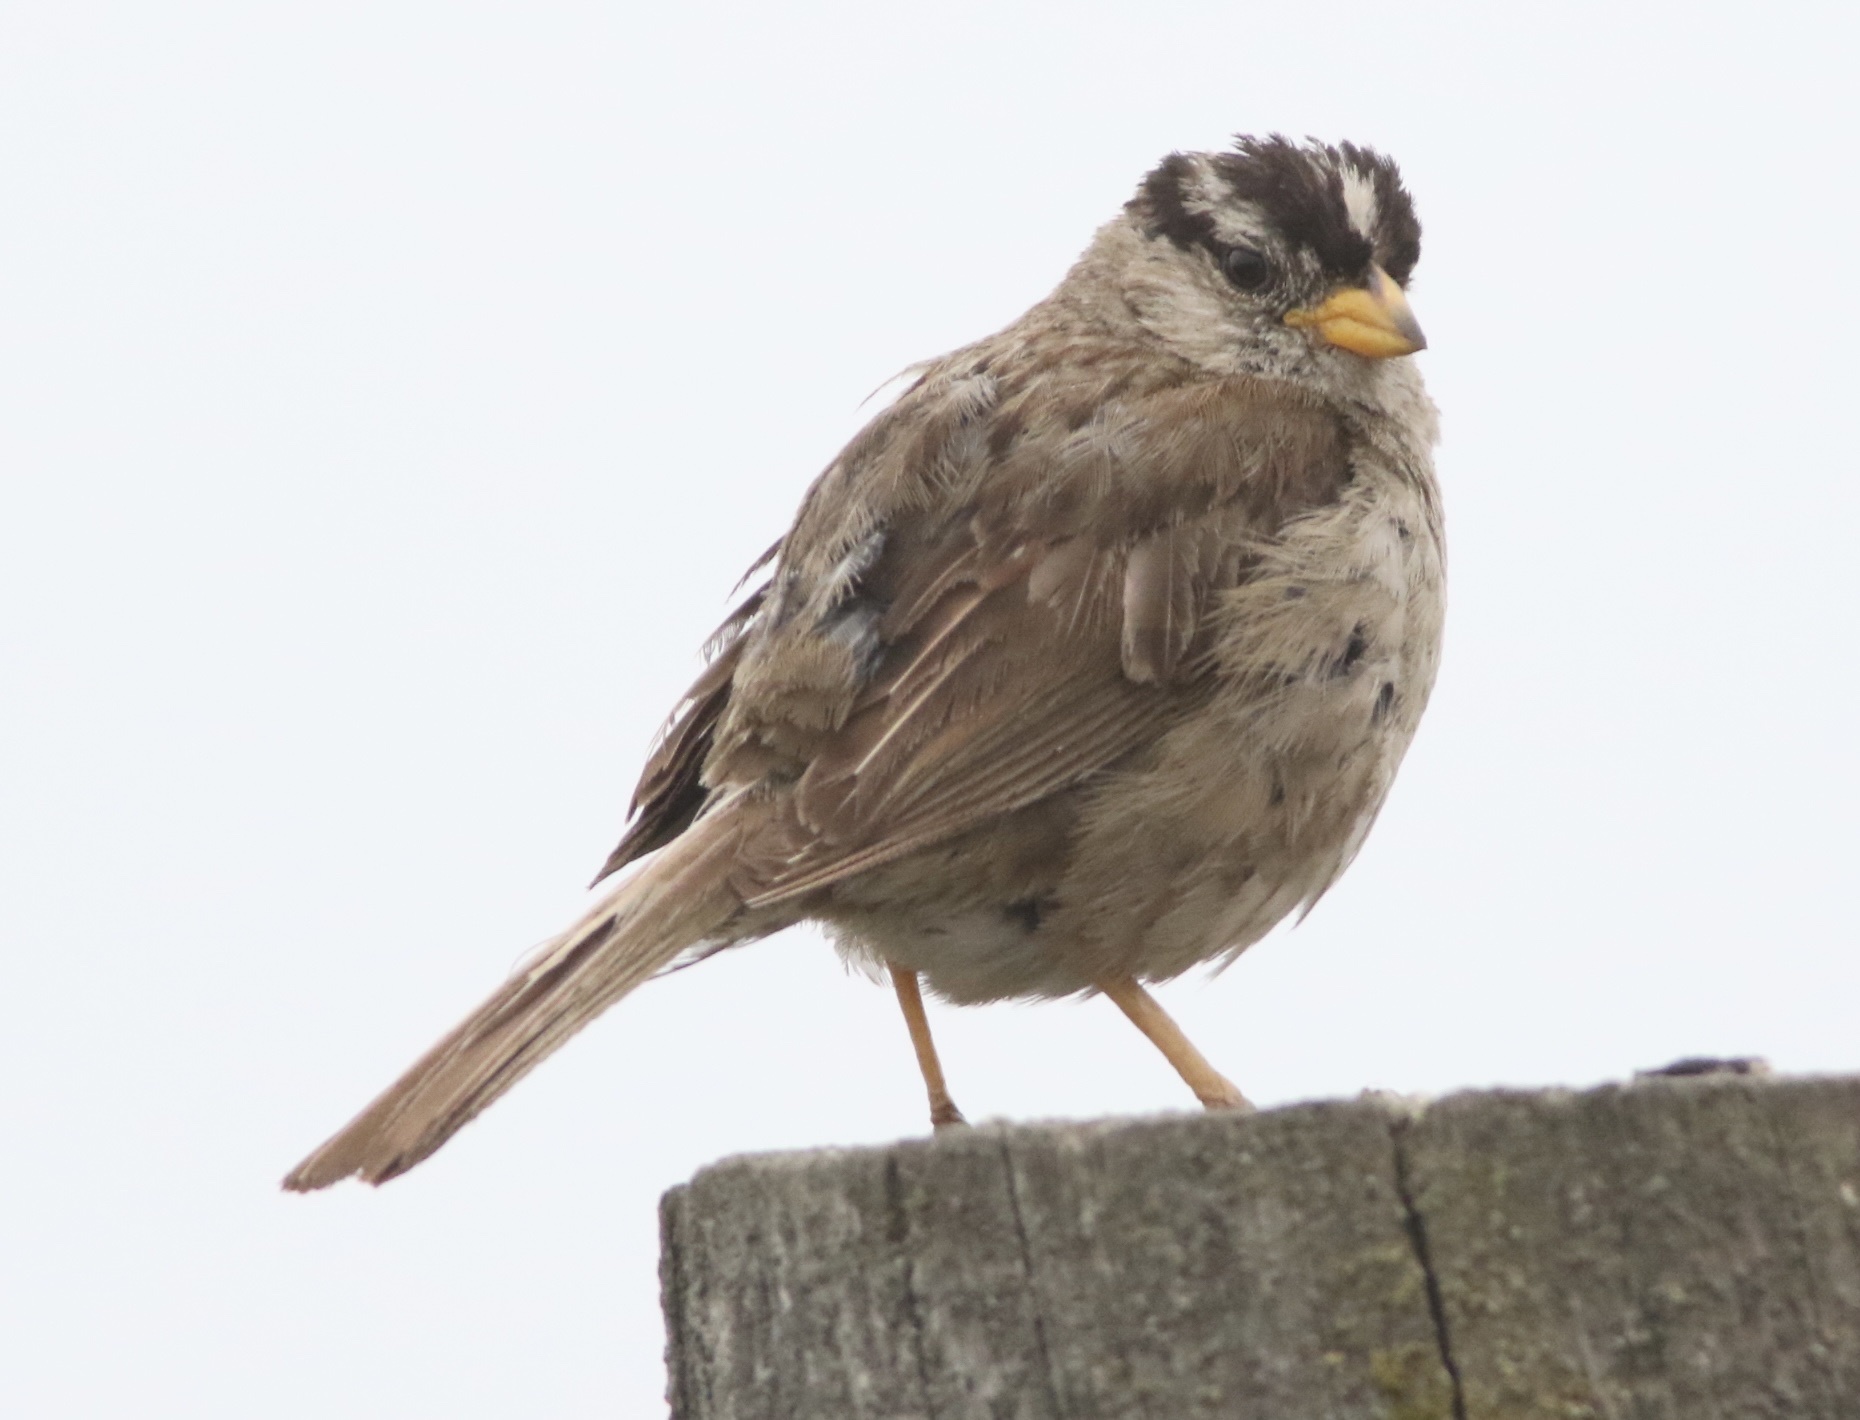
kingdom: Animalia
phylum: Chordata
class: Aves
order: Passeriformes
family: Passerellidae
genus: Zonotrichia
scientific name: Zonotrichia leucophrys
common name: White-crowned sparrow
